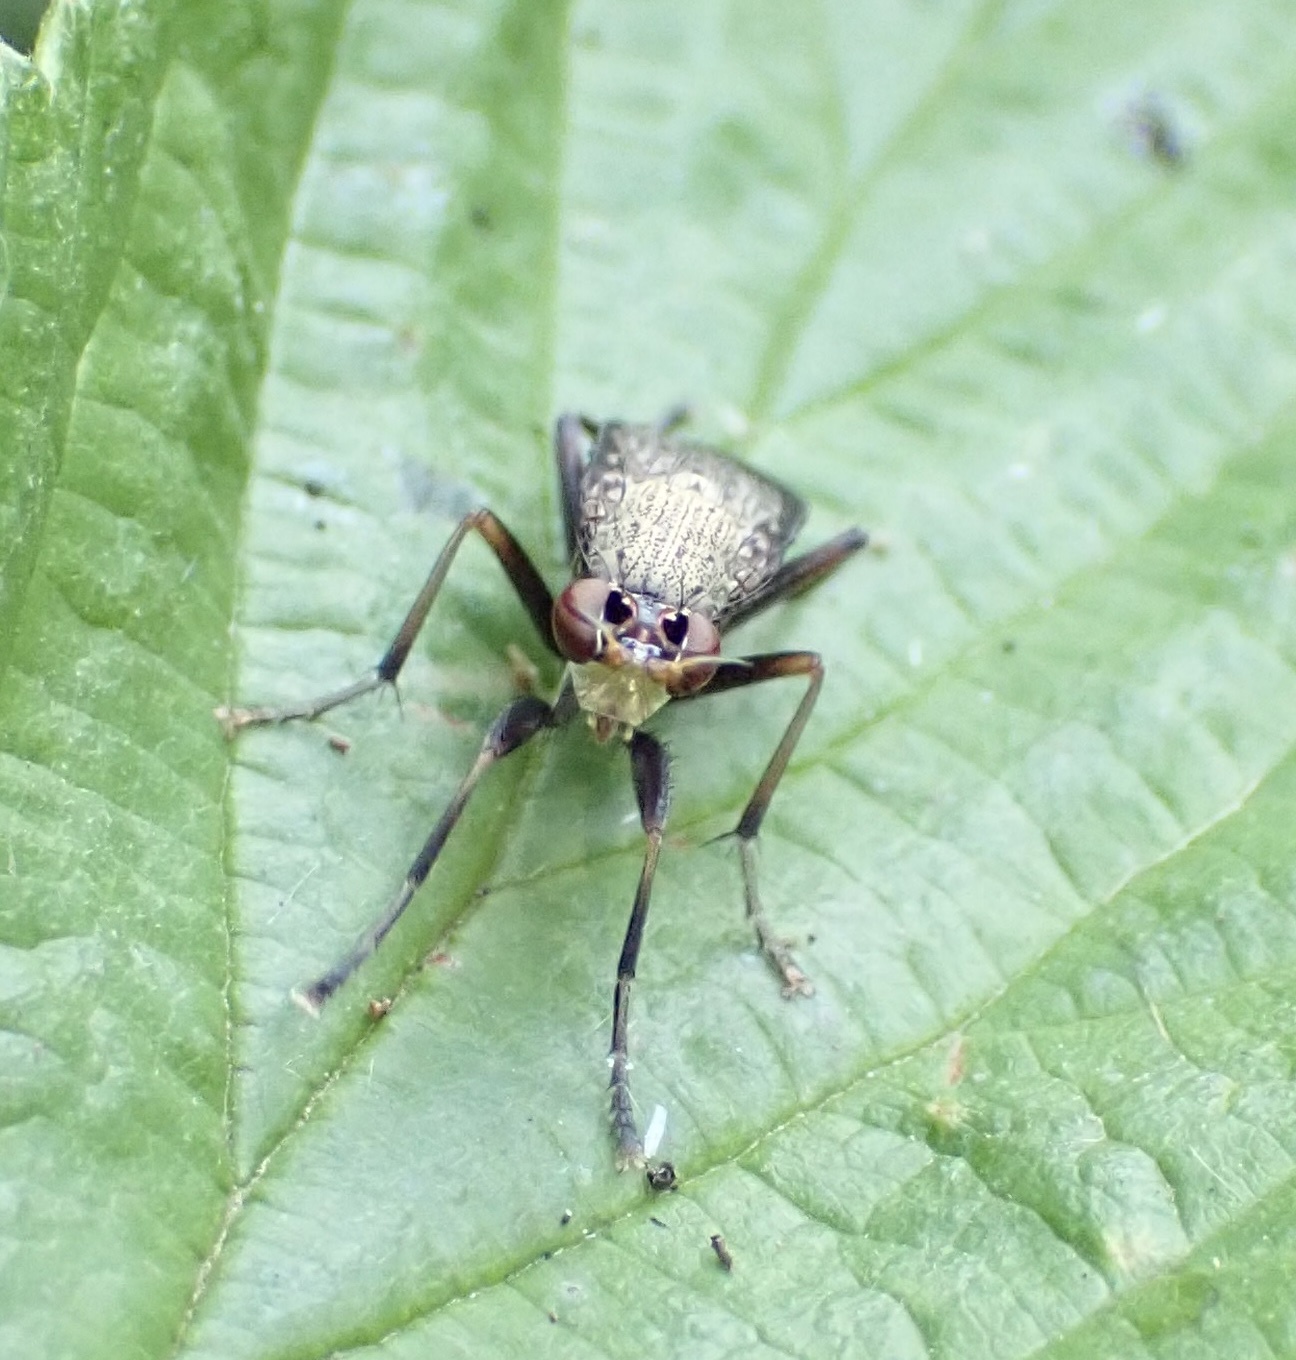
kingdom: Animalia
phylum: Arthropoda
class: Insecta
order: Diptera
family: Sciomyzidae
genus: Coremacera
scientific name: Coremacera marginata
